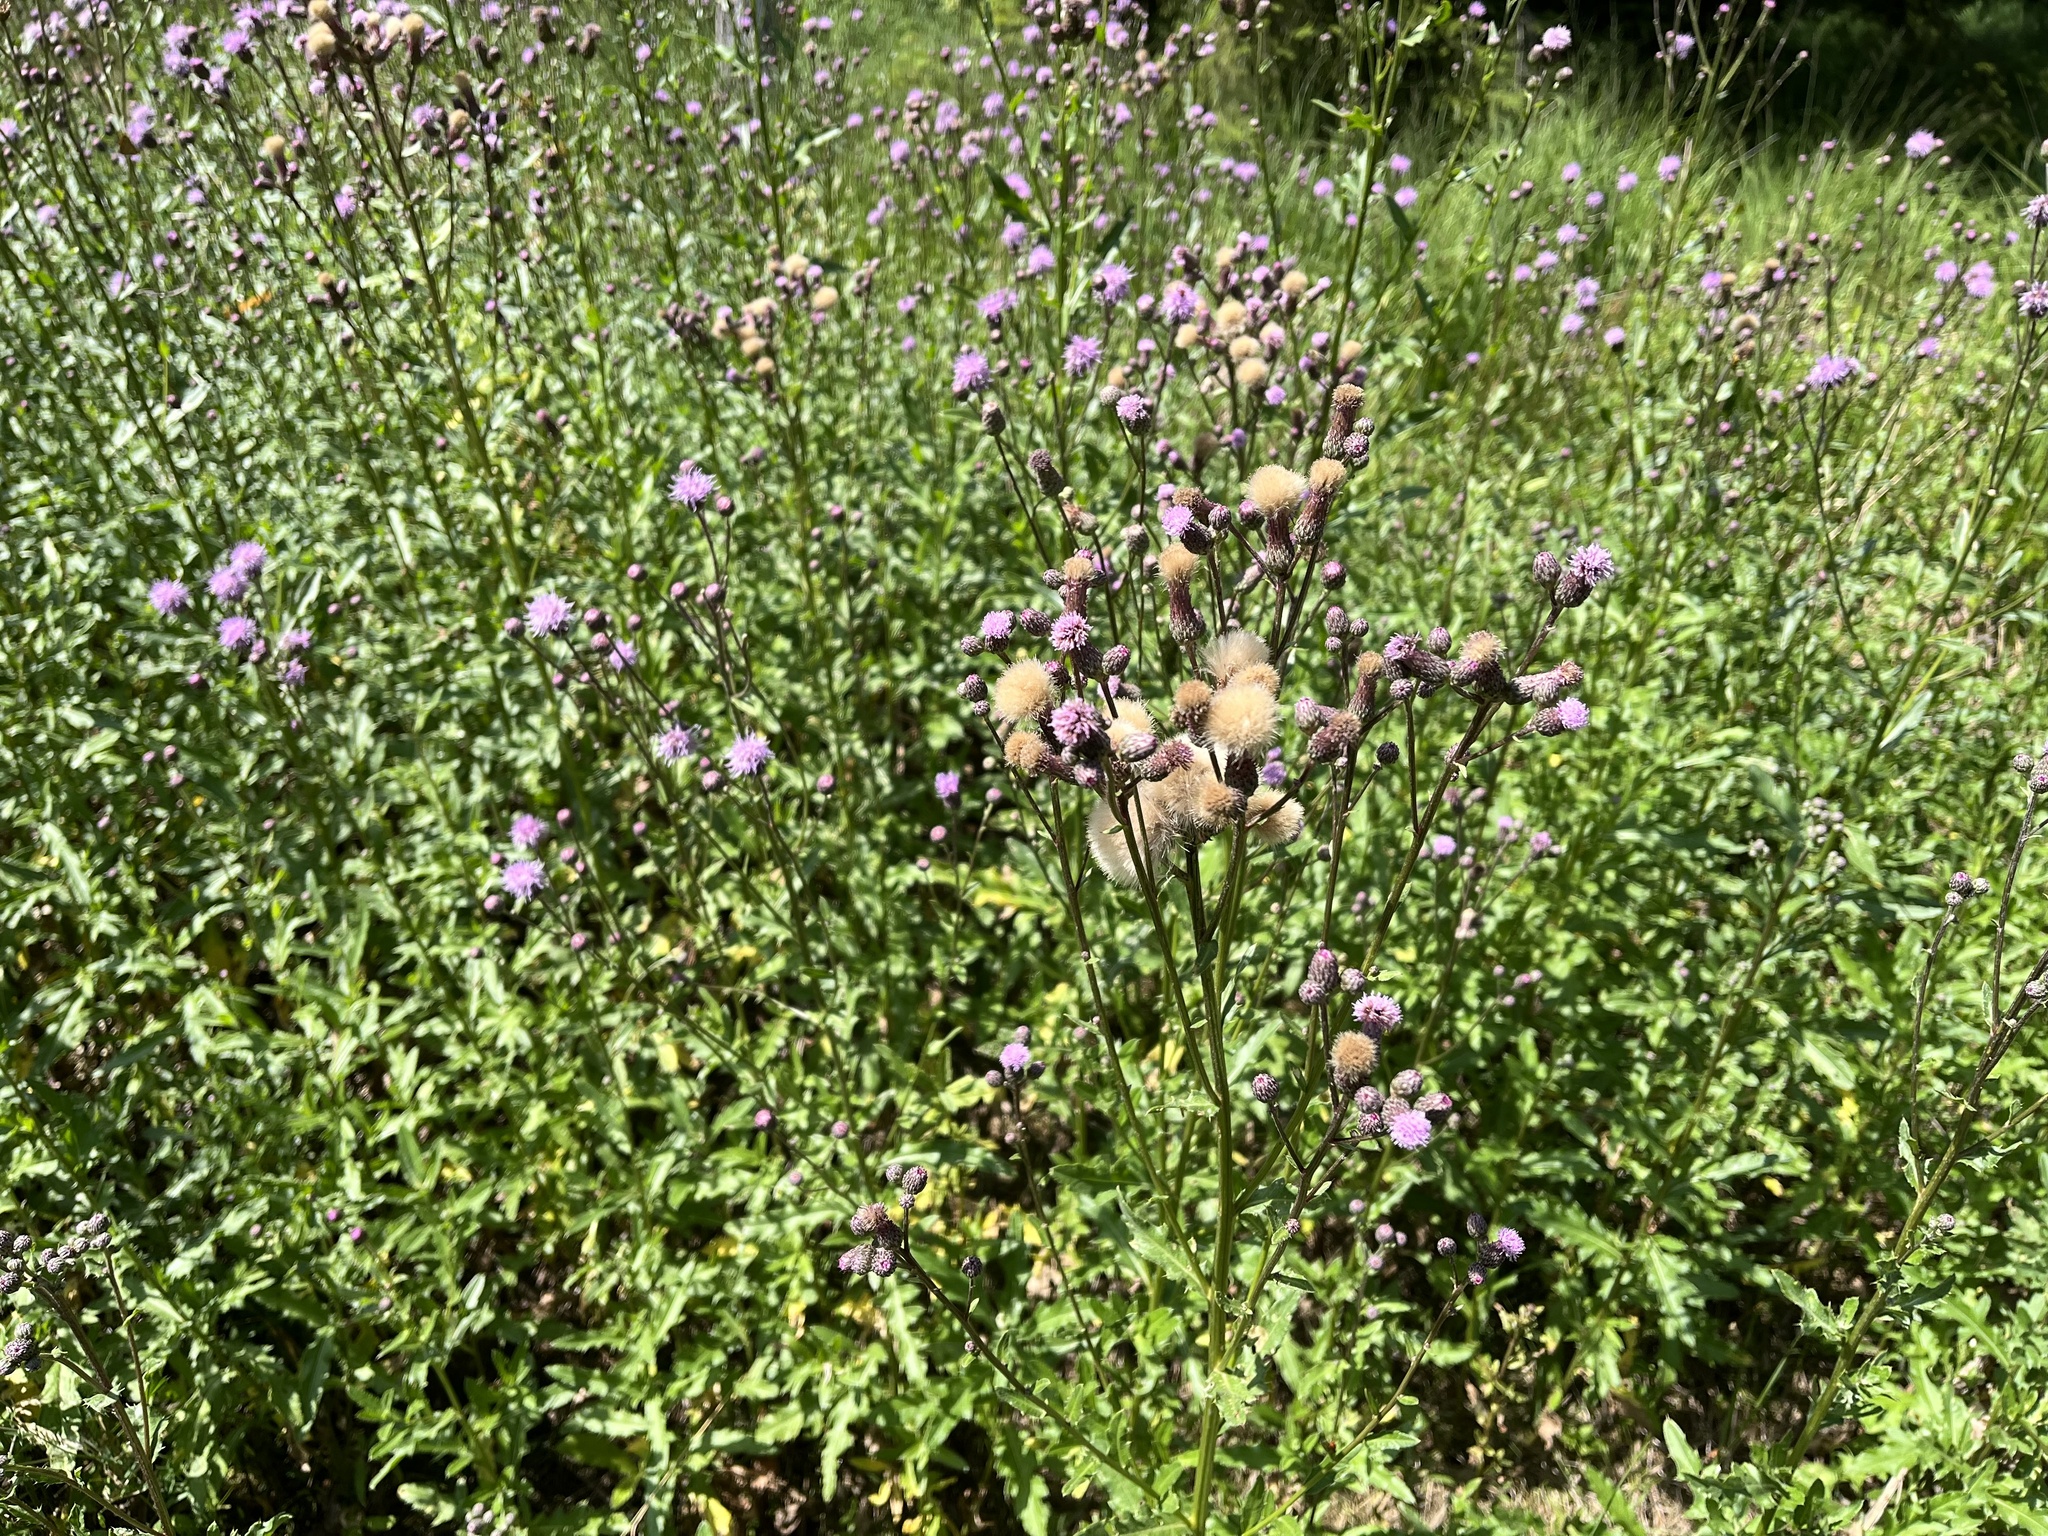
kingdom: Plantae
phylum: Tracheophyta
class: Magnoliopsida
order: Asterales
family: Asteraceae
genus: Cirsium
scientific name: Cirsium arvense
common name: Creeping thistle
